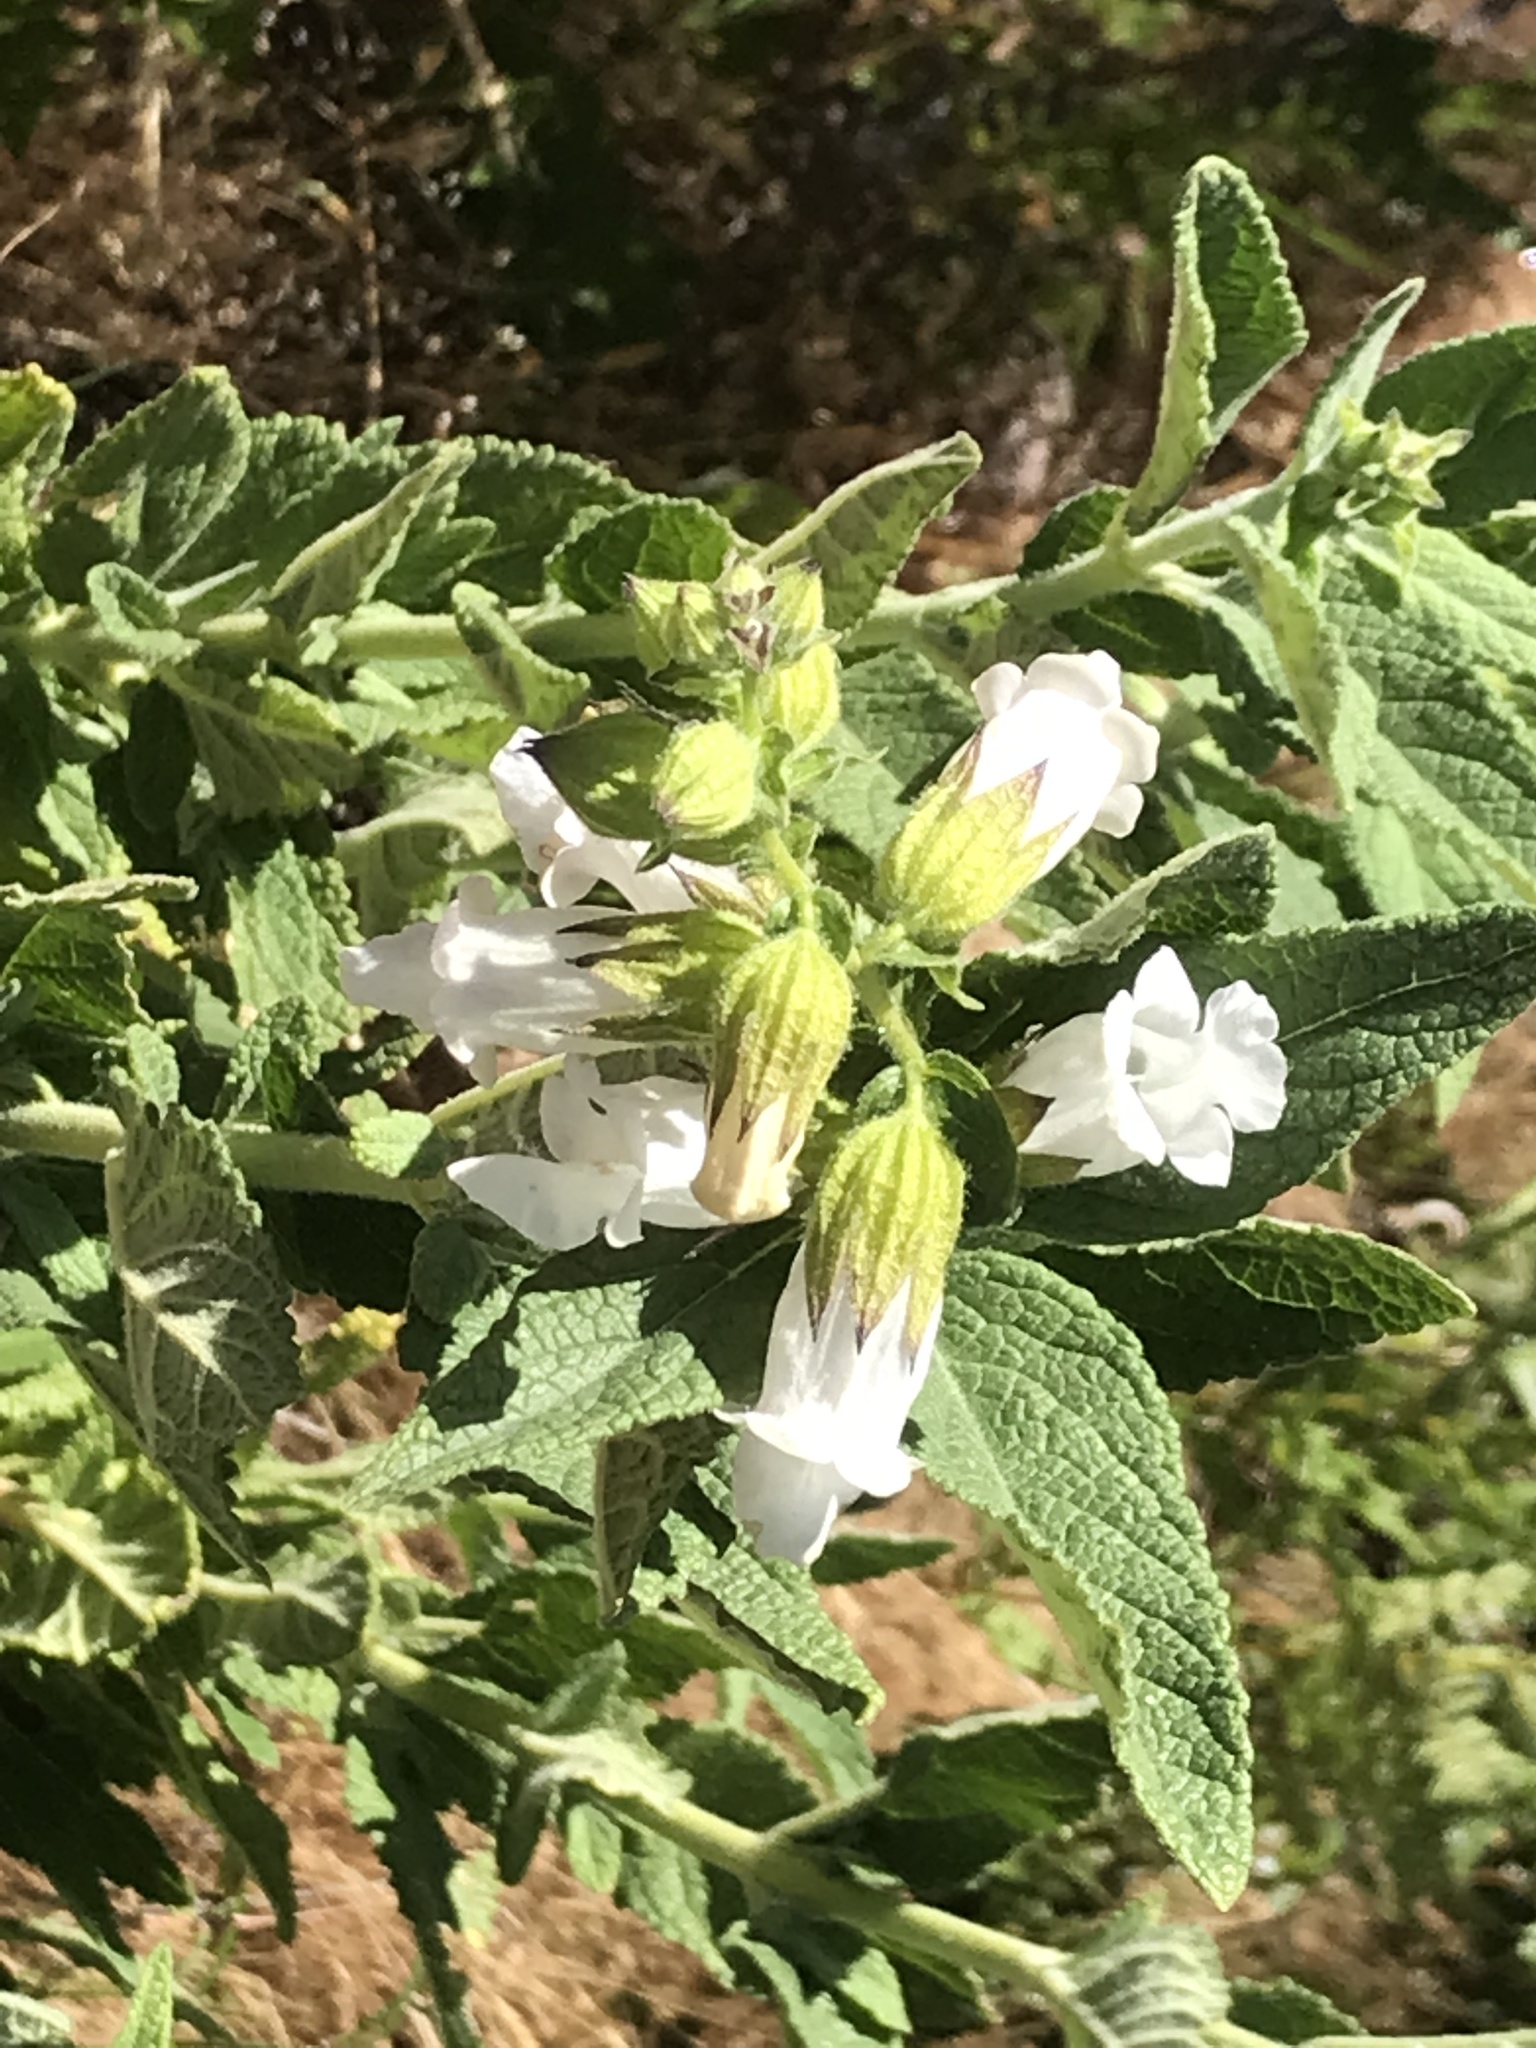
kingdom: Plantae
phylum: Tracheophyta
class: Magnoliopsida
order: Lamiales
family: Lamiaceae
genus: Lepechinia
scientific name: Lepechinia calycina
